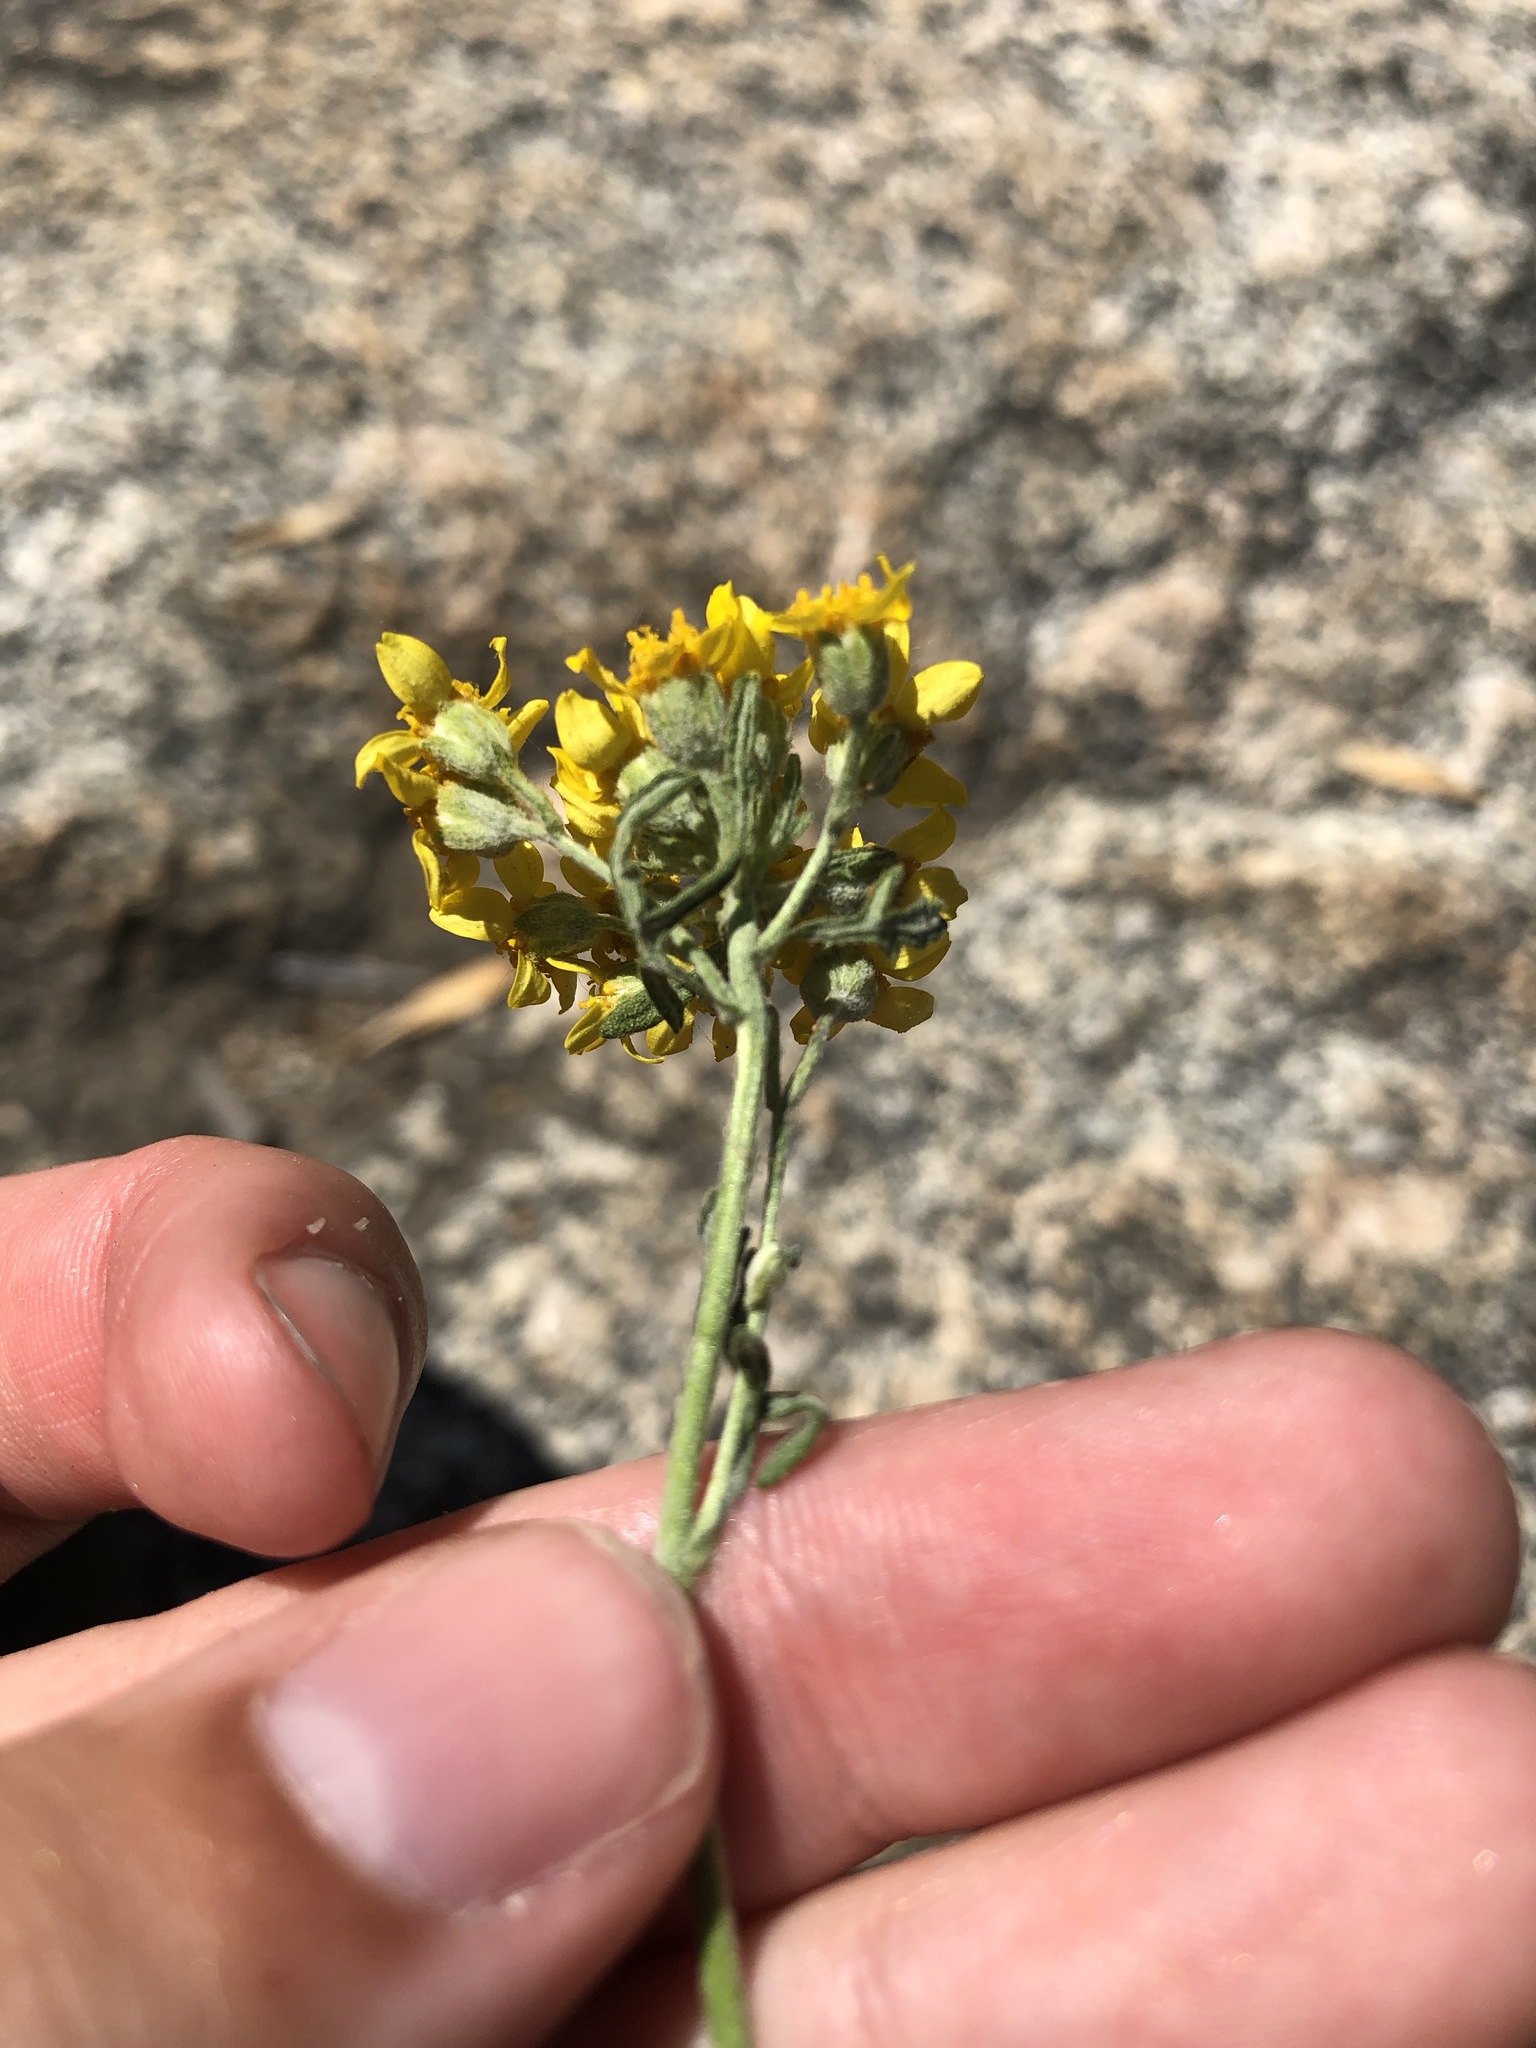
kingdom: Plantae
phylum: Tracheophyta
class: Magnoliopsida
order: Asterales
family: Asteraceae
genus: Eriophyllum
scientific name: Eriophyllum confertiflorum
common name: Golden-yarrow
